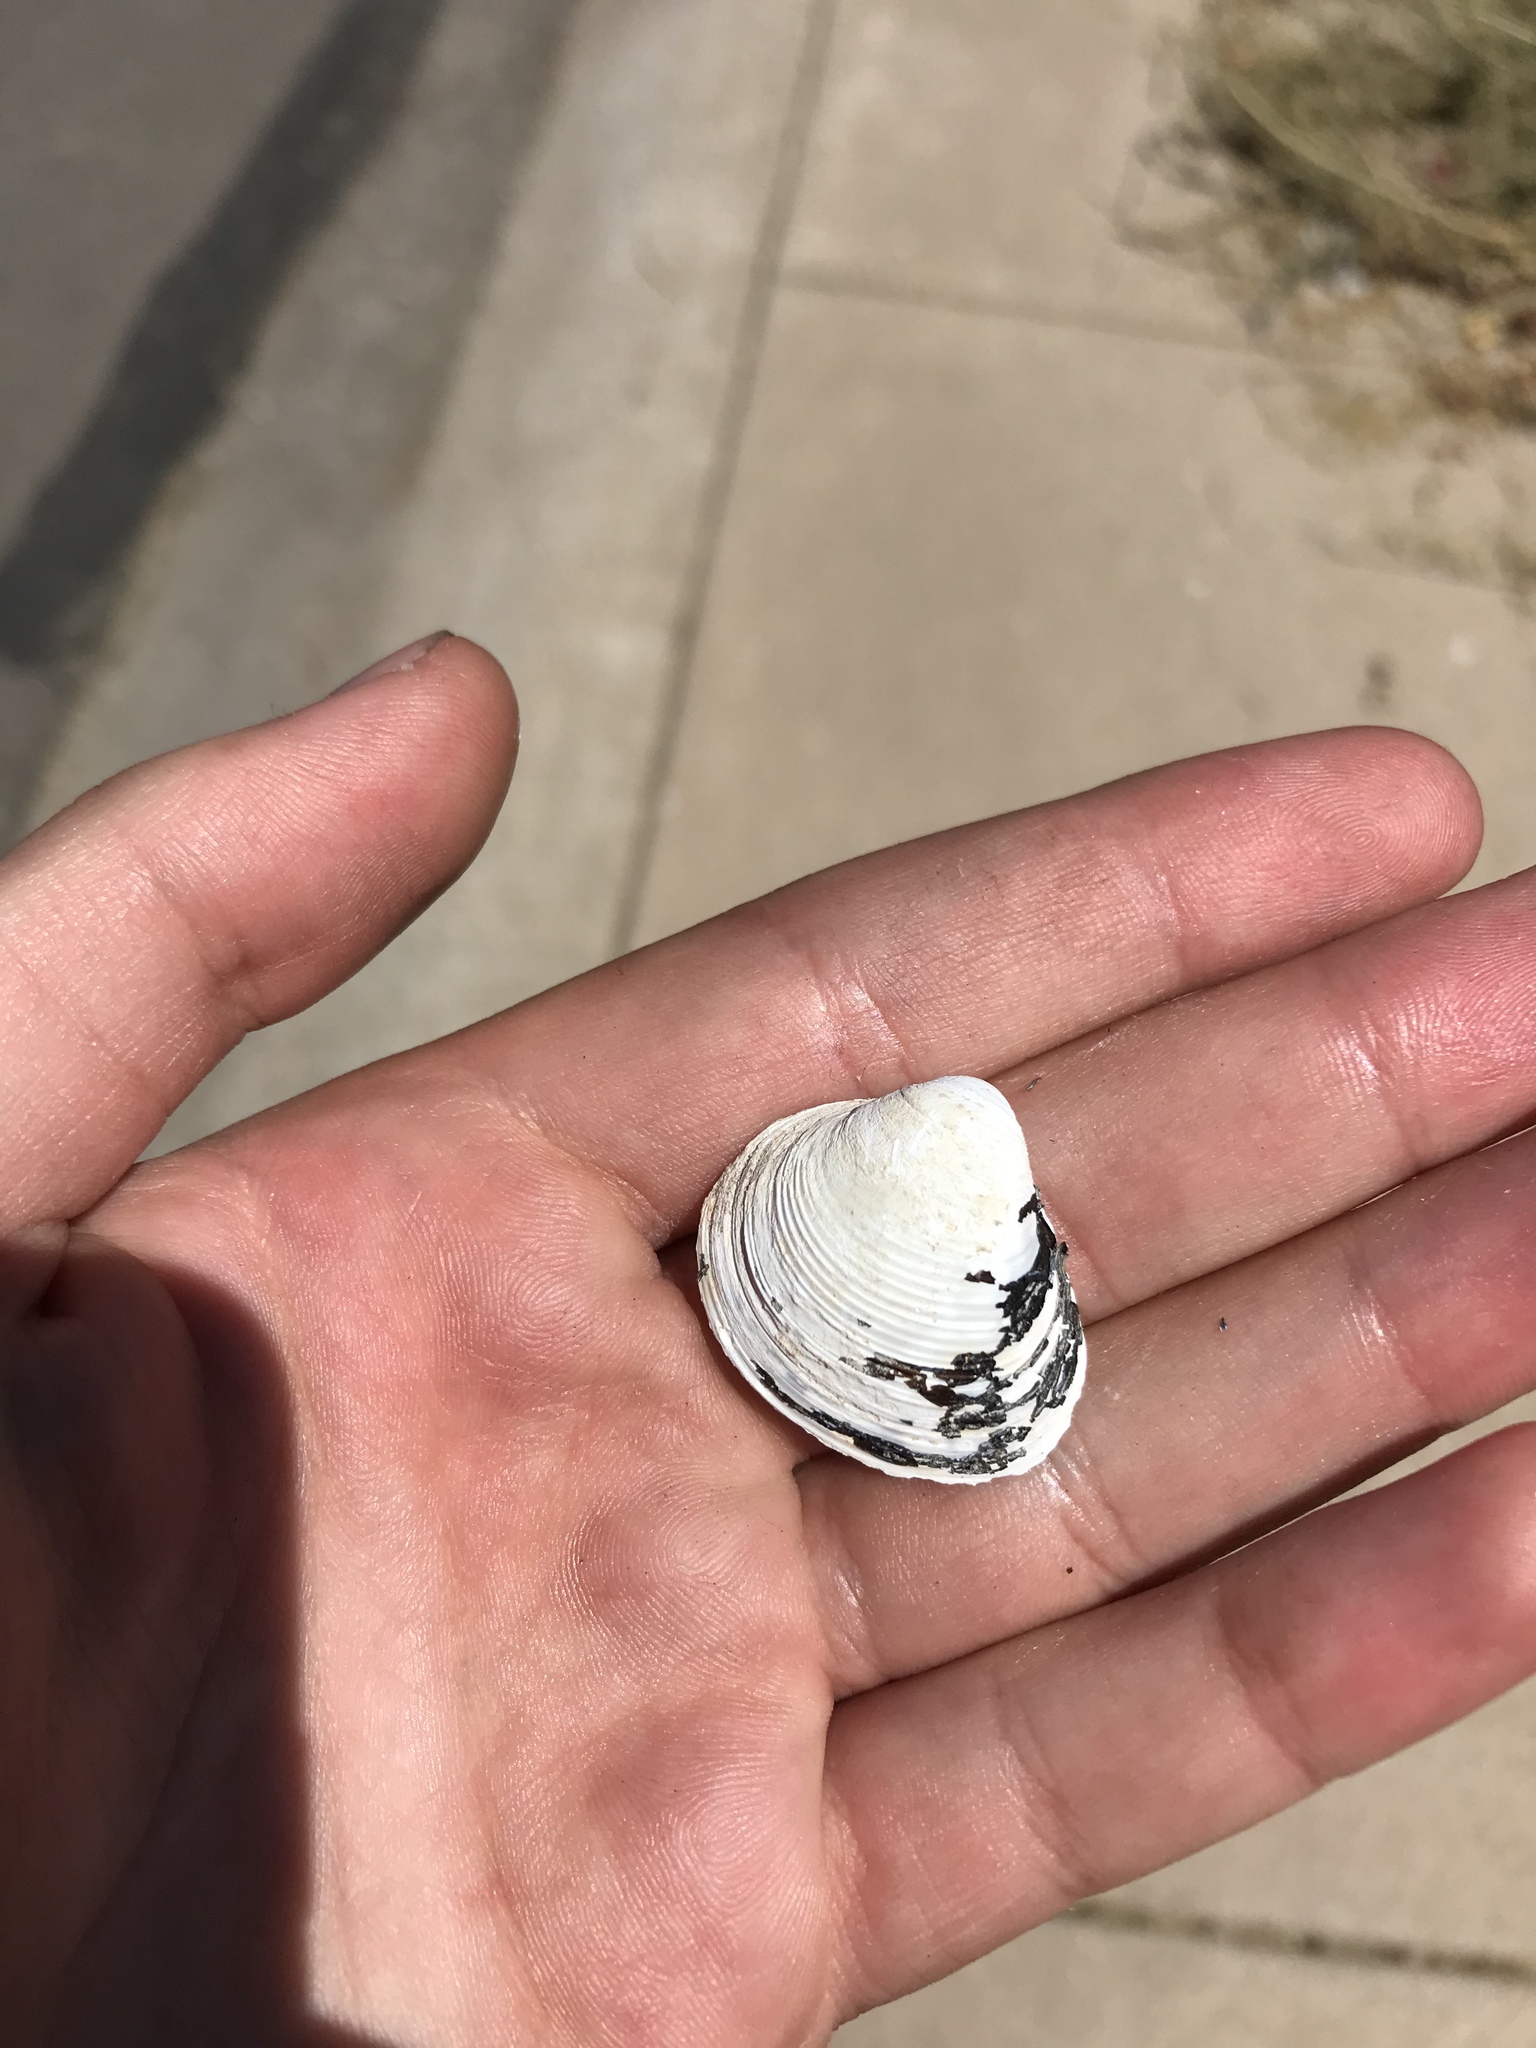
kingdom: Animalia
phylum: Mollusca
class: Bivalvia
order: Venerida
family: Cyrenidae
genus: Corbicula
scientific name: Corbicula fluminea
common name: Asian clam
